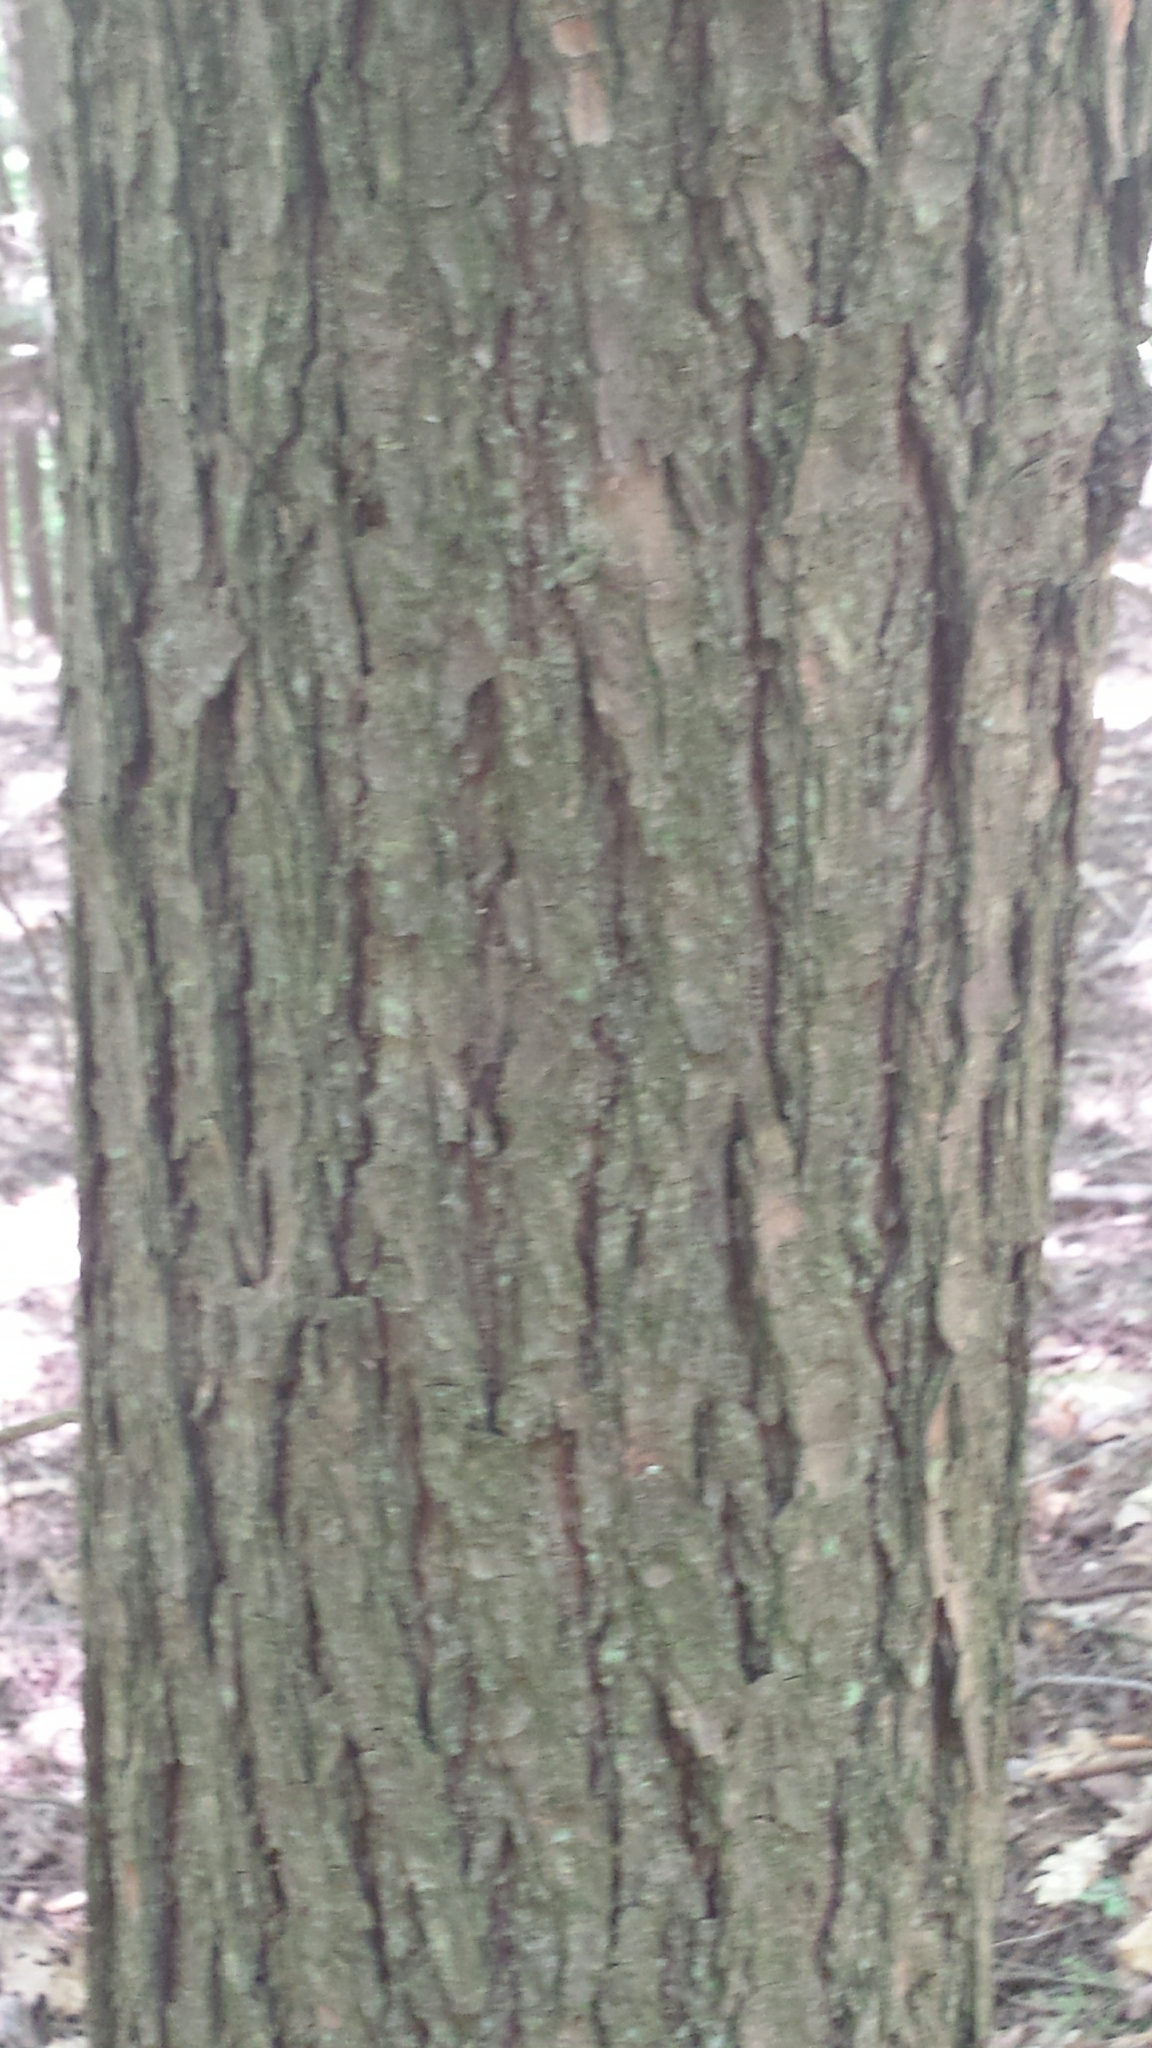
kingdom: Plantae
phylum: Tracheophyta
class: Pinopsida
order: Pinales
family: Pinaceae
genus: Tsuga
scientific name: Tsuga canadensis
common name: Eastern hemlock
